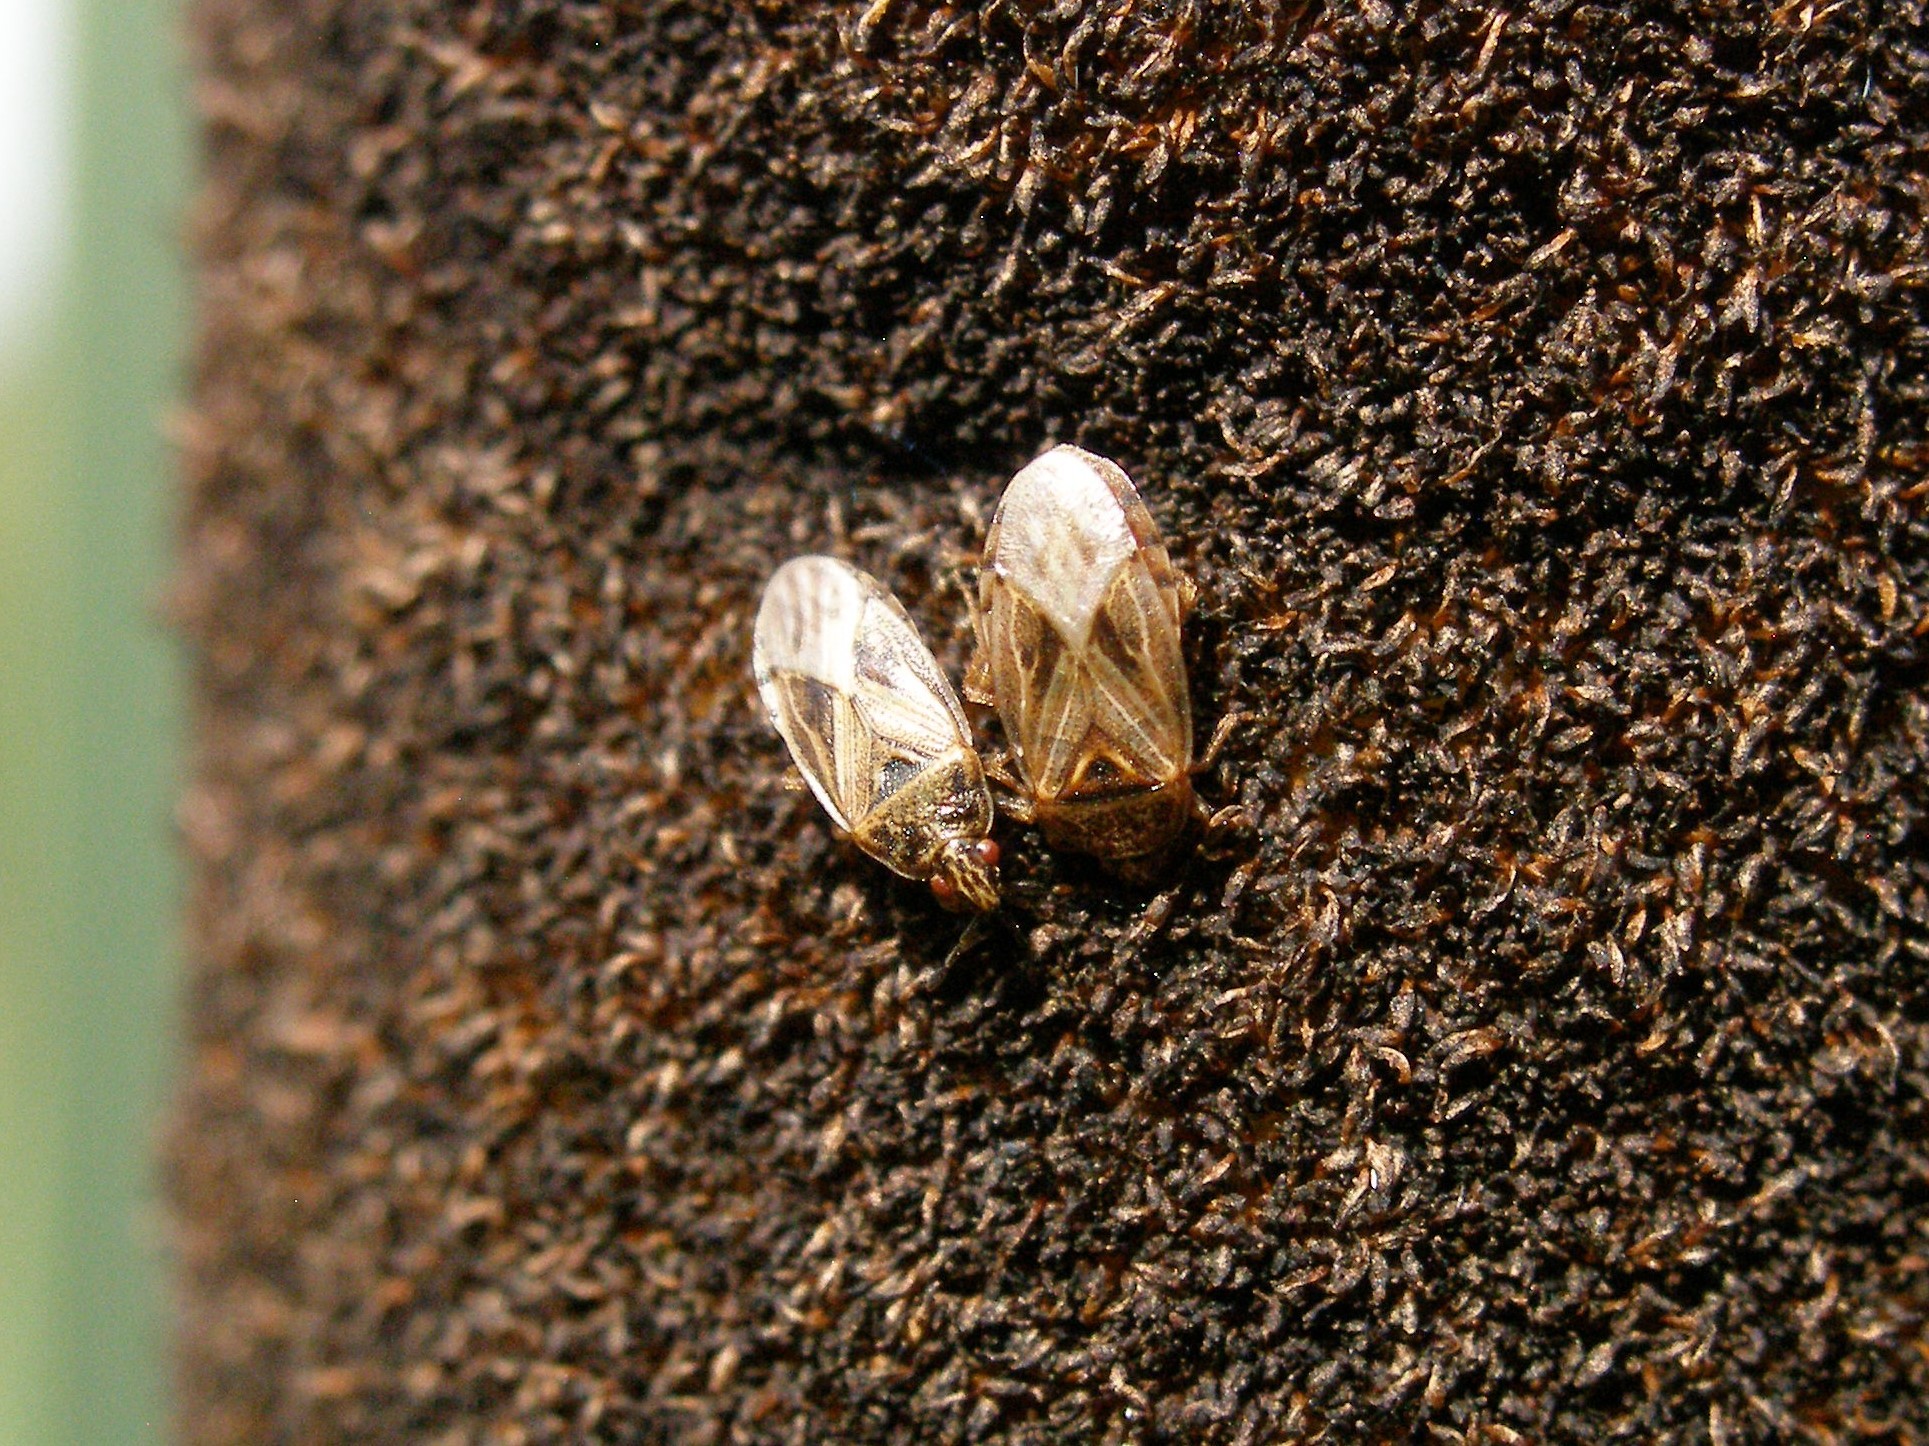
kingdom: Animalia
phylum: Arthropoda
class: Insecta
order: Hemiptera
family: Artheneidae
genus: Chilacis
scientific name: Chilacis typhae
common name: Cattail bug
